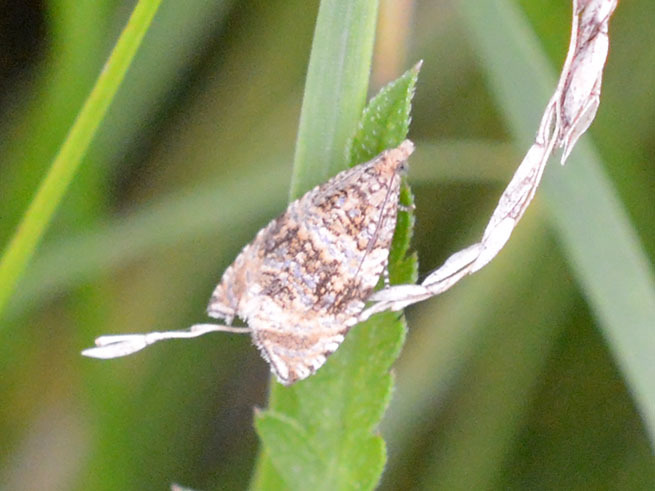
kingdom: Animalia
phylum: Arthropoda
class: Insecta
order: Lepidoptera
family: Tortricidae
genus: Syricoris
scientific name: Syricoris lacunana
